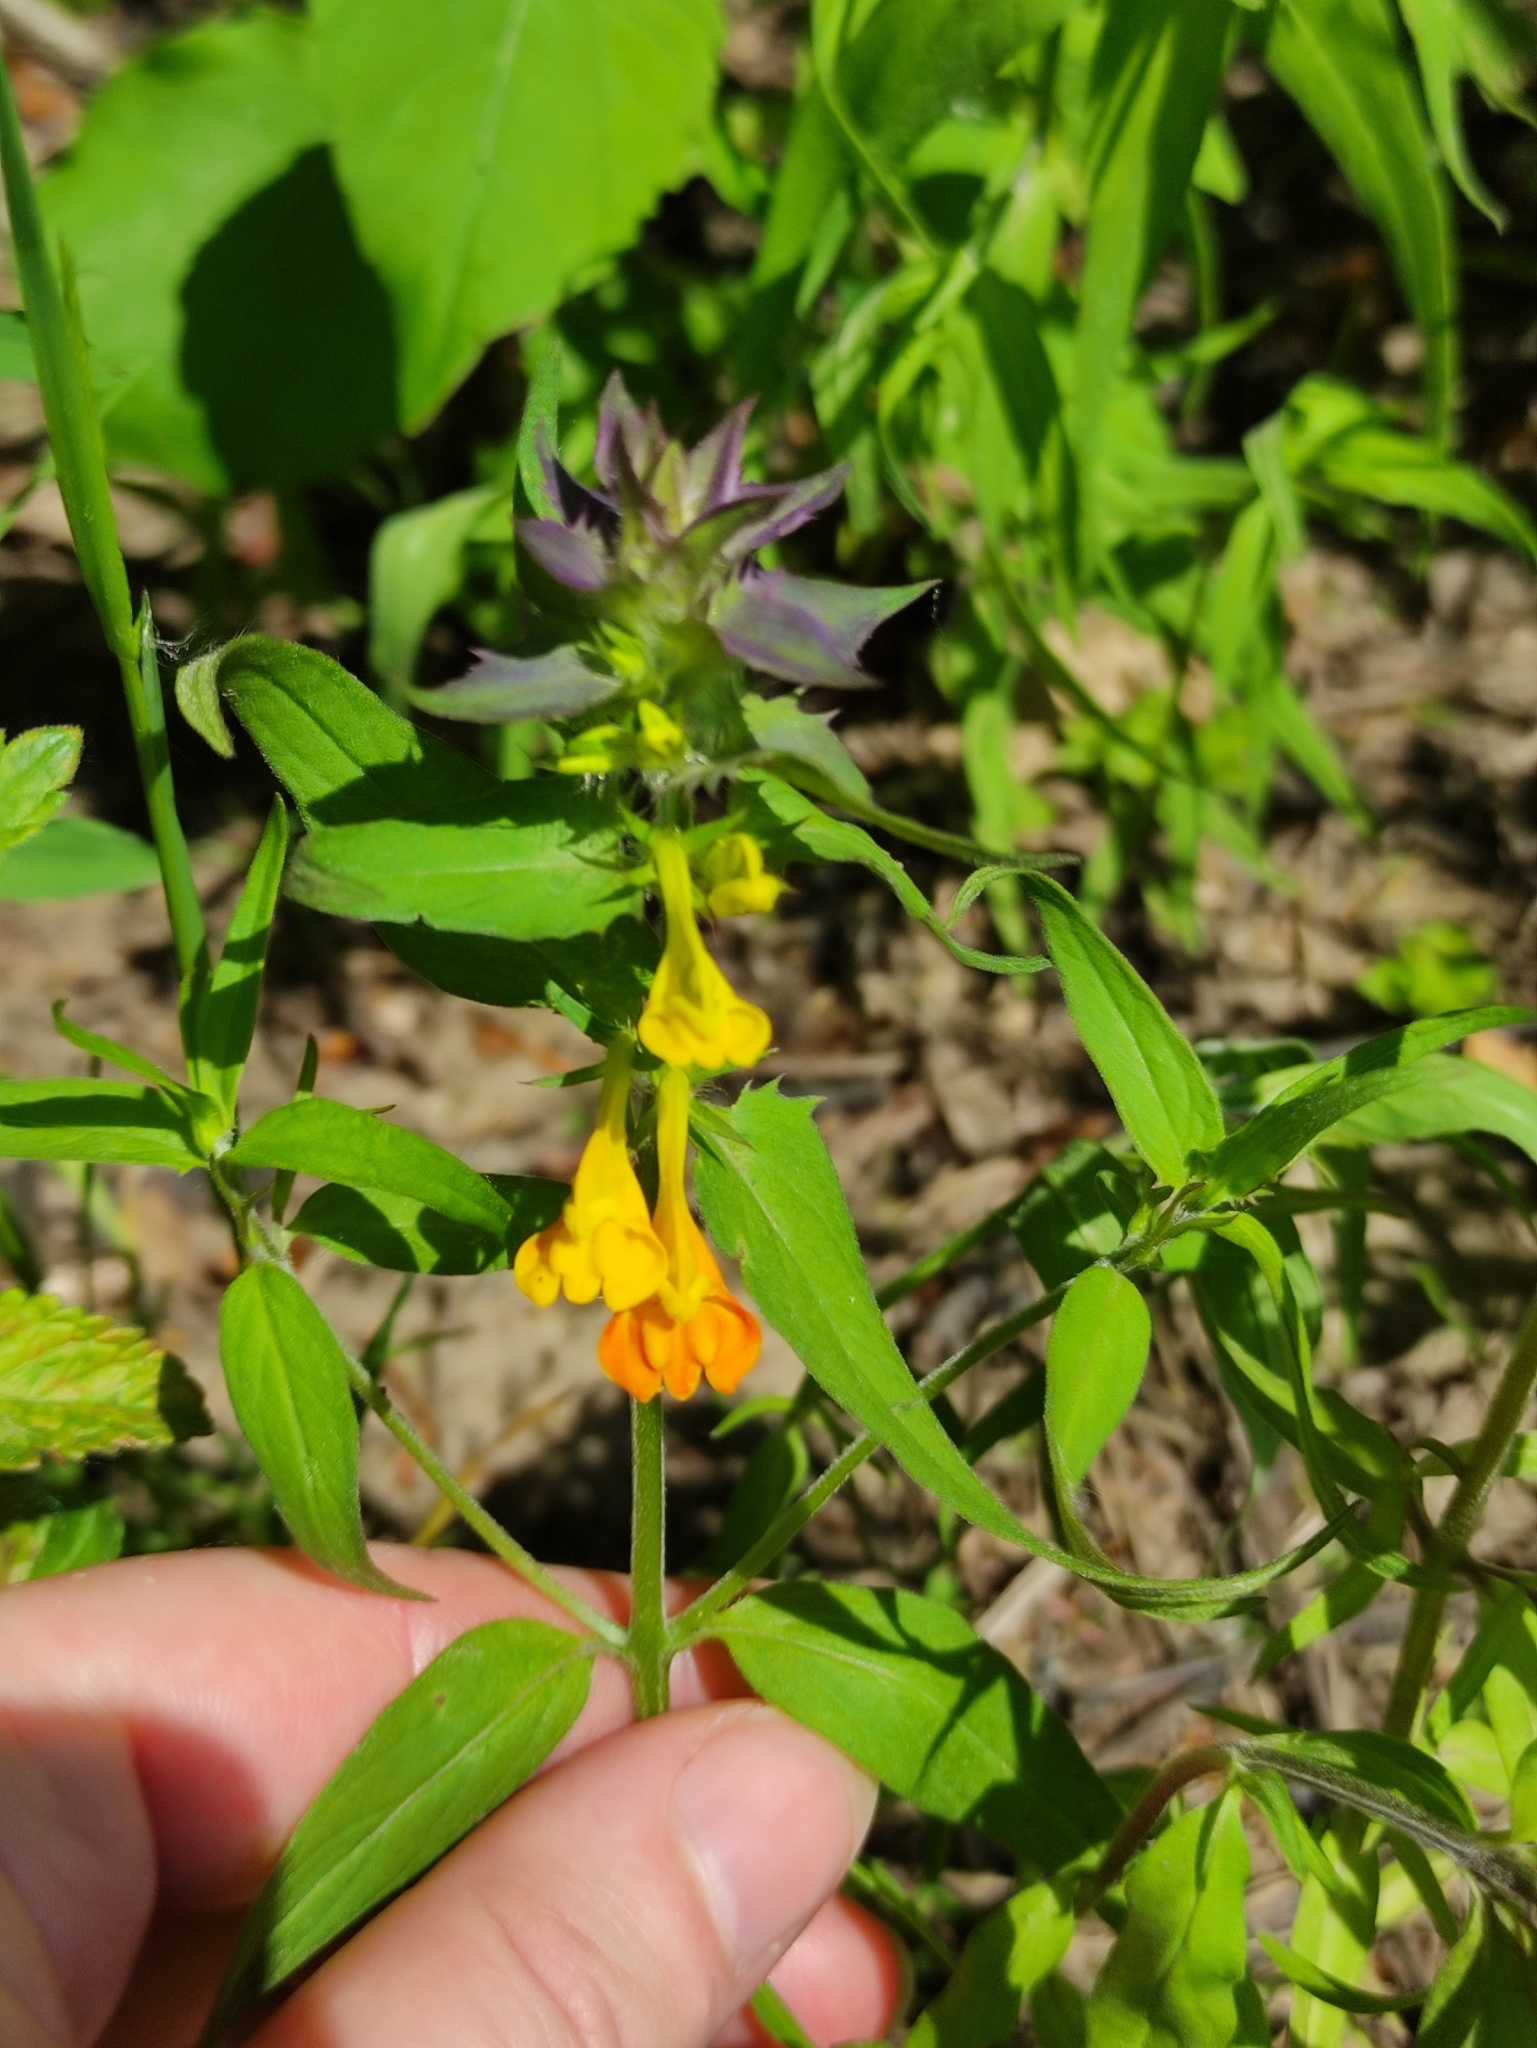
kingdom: Plantae
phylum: Tracheophyta
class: Magnoliopsida
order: Lamiales
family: Orobanchaceae
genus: Melampyrum
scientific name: Melampyrum nemorosum
